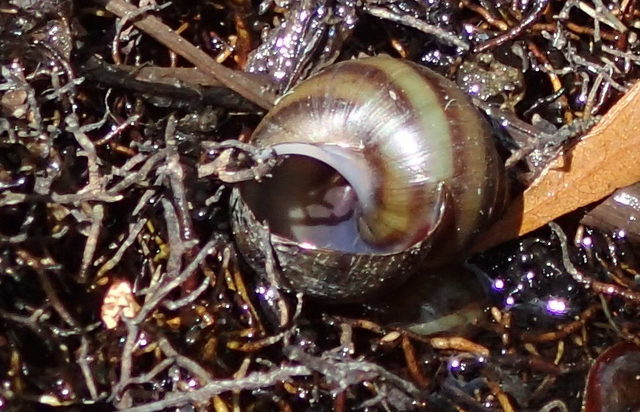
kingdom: Animalia
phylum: Mollusca
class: Gastropoda
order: Architaenioglossa
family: Viviparidae
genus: Callinina
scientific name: Callinina georgiana
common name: Banded mystery snail
